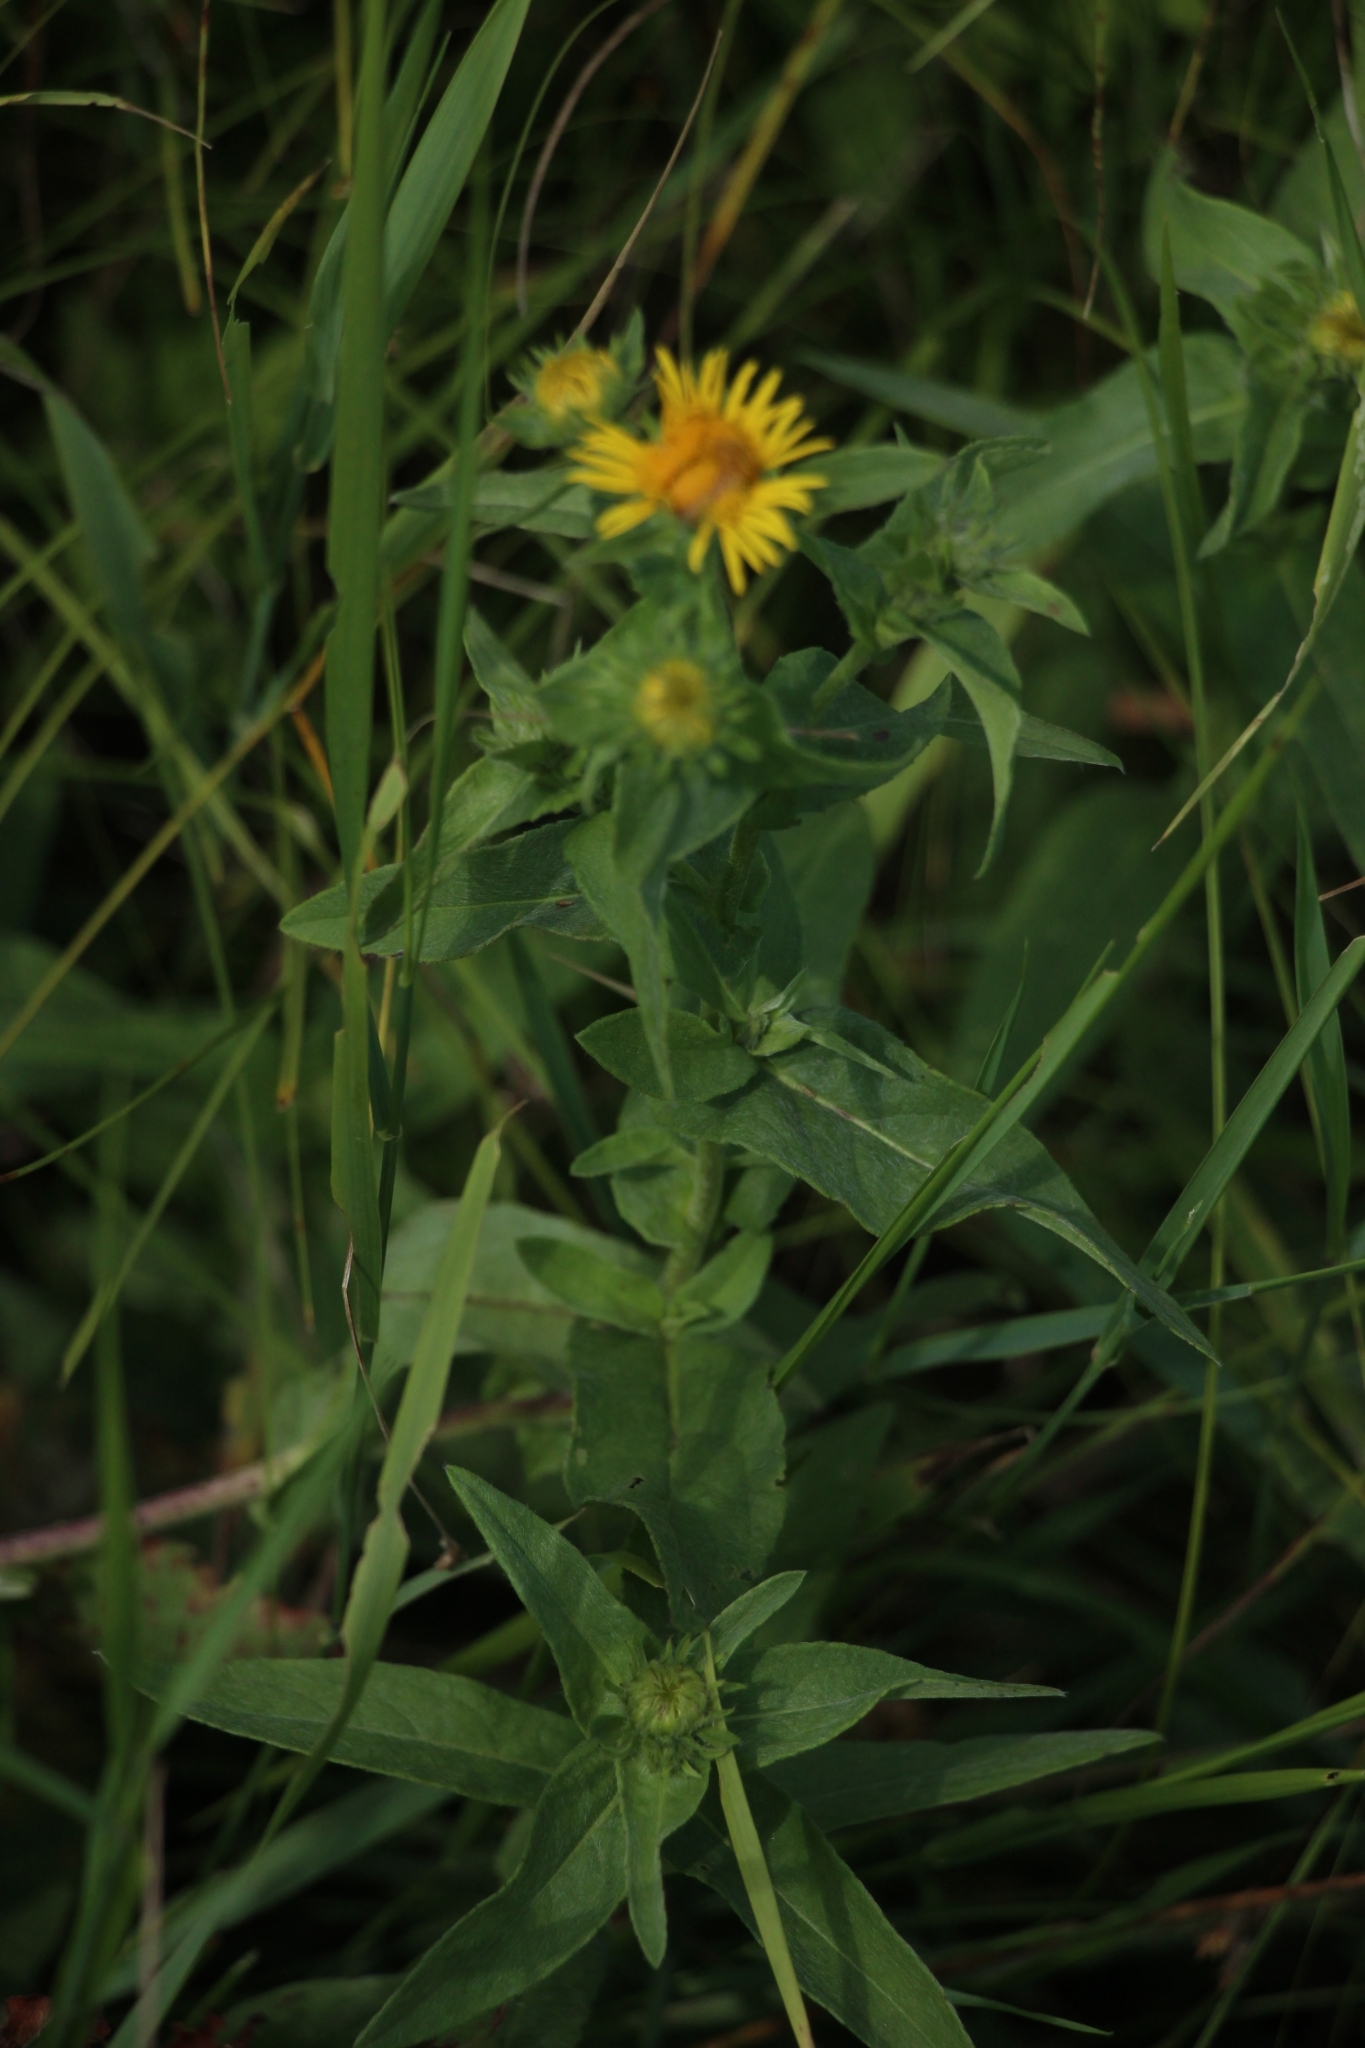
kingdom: Plantae
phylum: Tracheophyta
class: Magnoliopsida
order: Asterales
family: Asteraceae
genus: Pentanema
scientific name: Pentanema britannicum
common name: British elecampane
